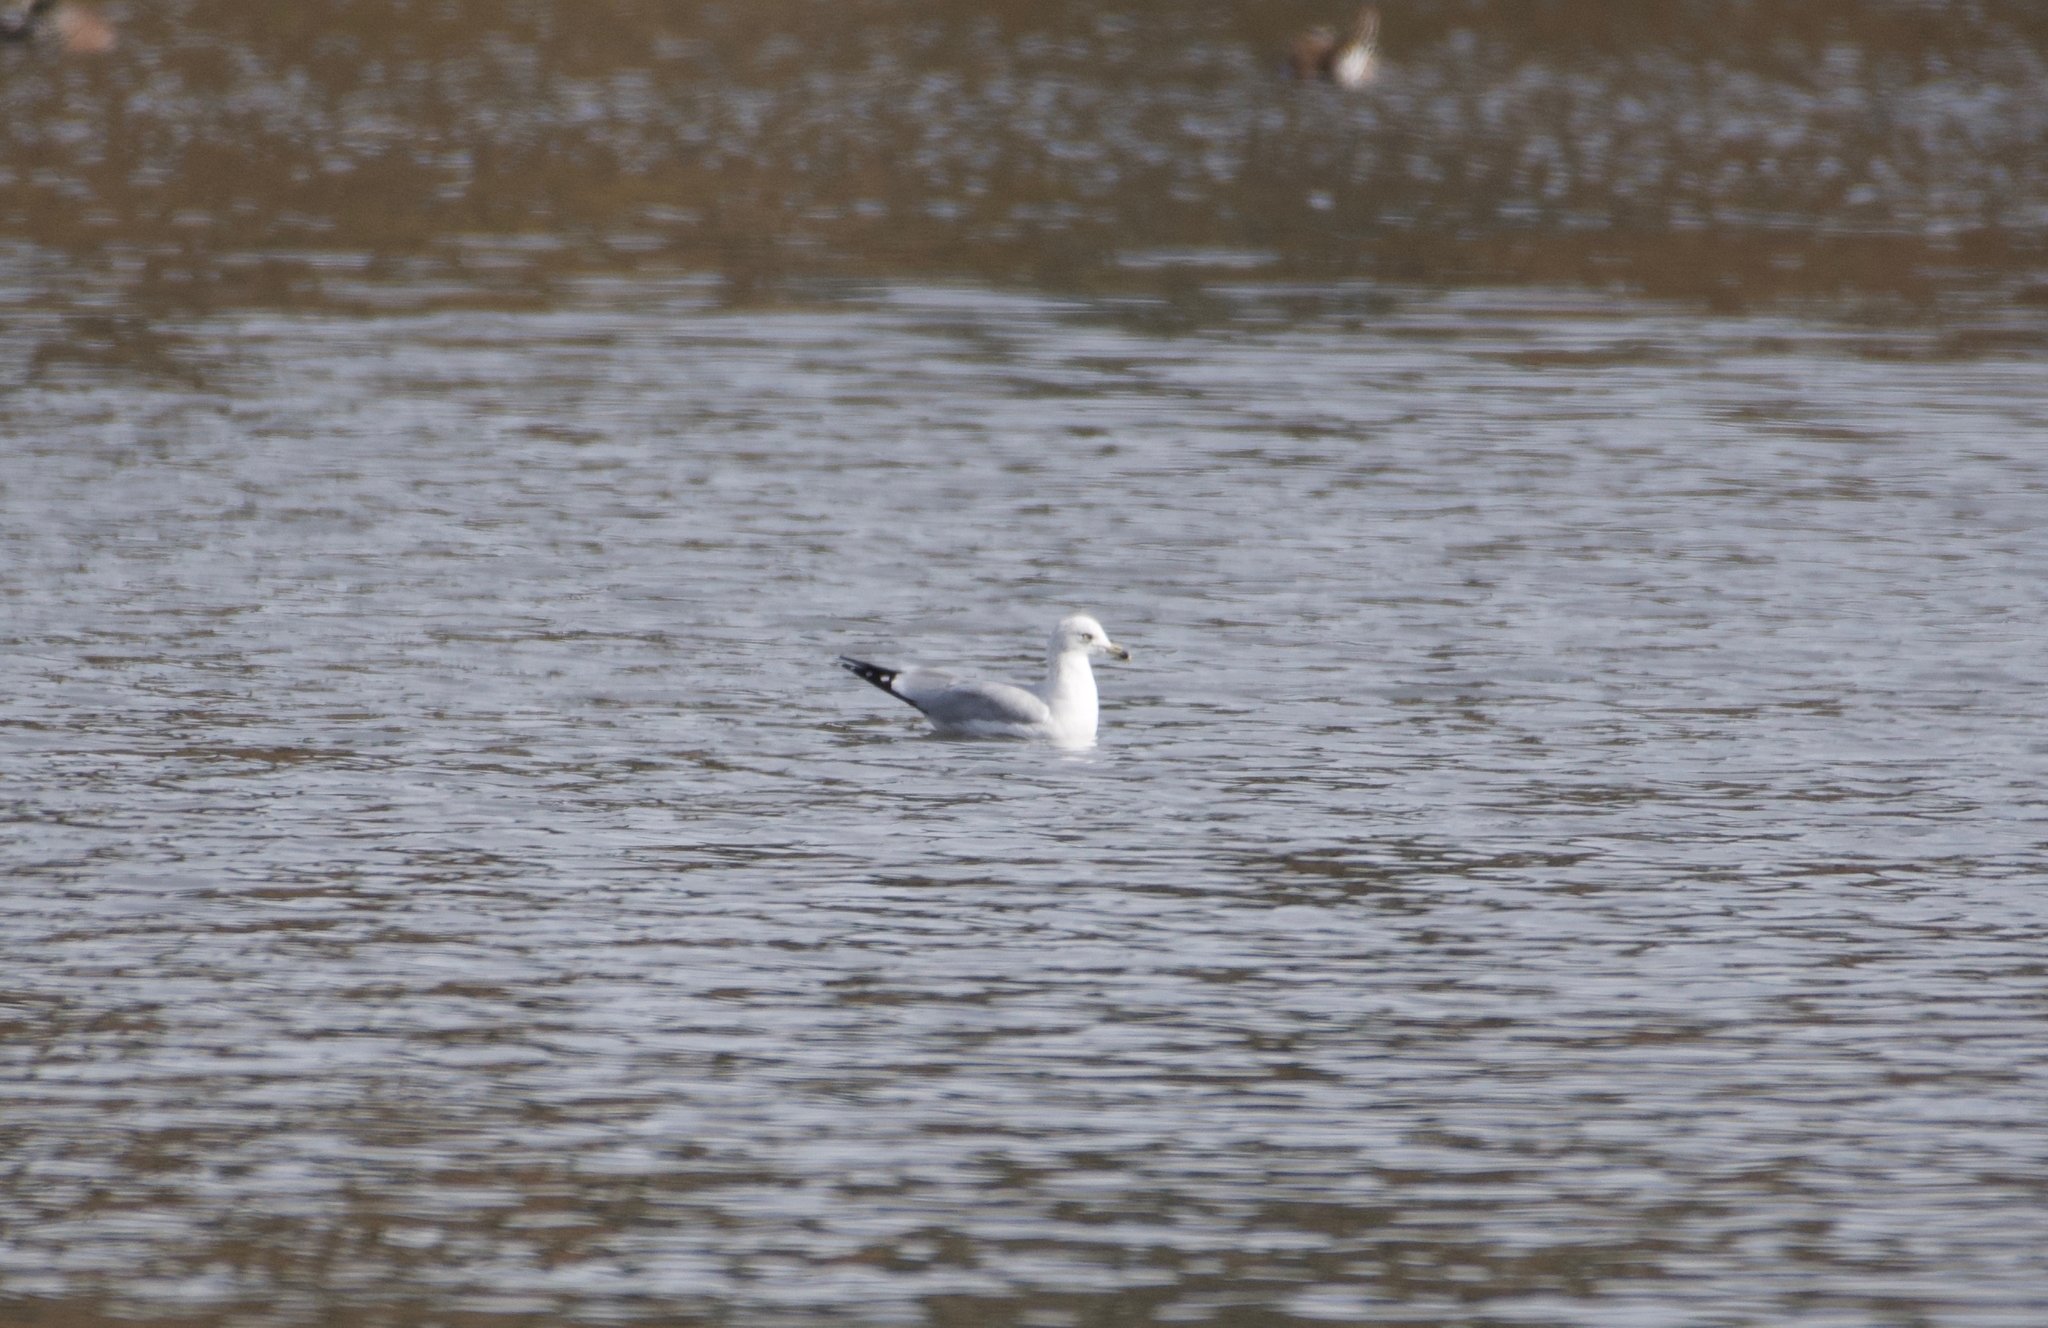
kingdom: Animalia
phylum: Chordata
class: Aves
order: Charadriiformes
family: Laridae
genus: Larus
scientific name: Larus delawarensis
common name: Ring-billed gull
